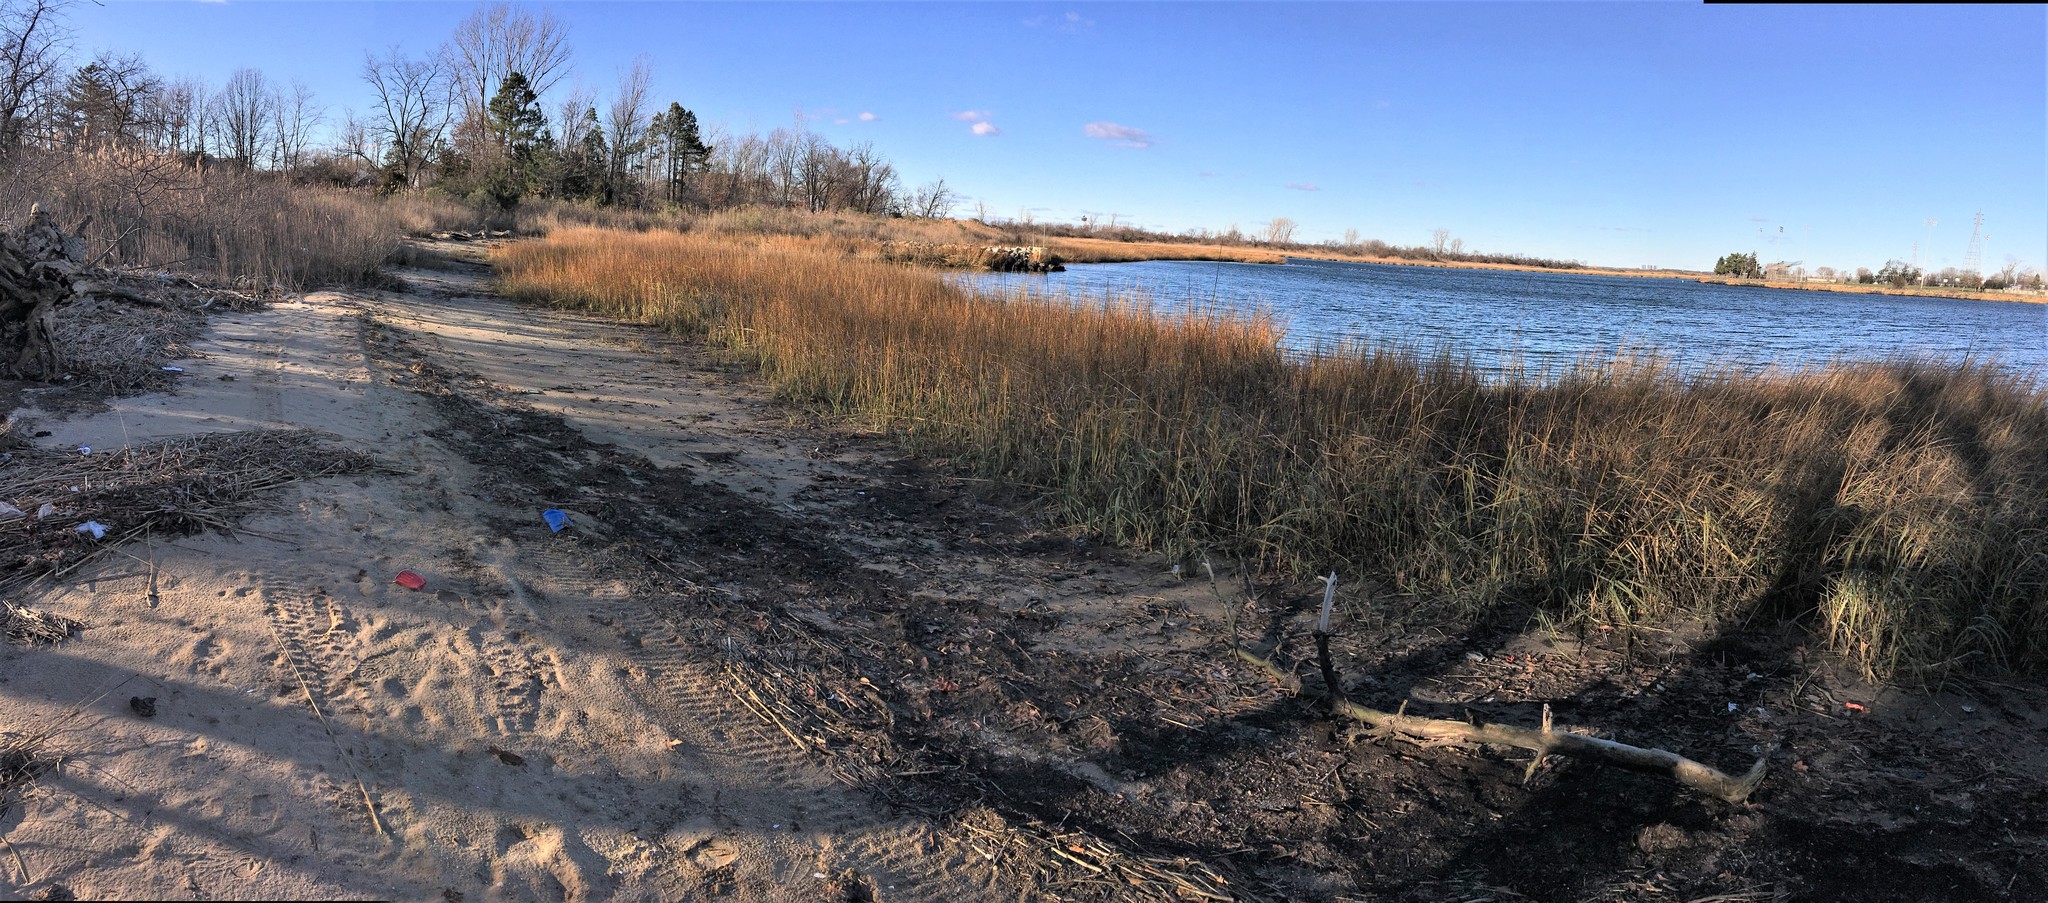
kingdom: Plantae
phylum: Tracheophyta
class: Liliopsida
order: Poales
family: Poaceae
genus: Sporobolus
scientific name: Sporobolus alterniflorus
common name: Atlantic cordgrass
